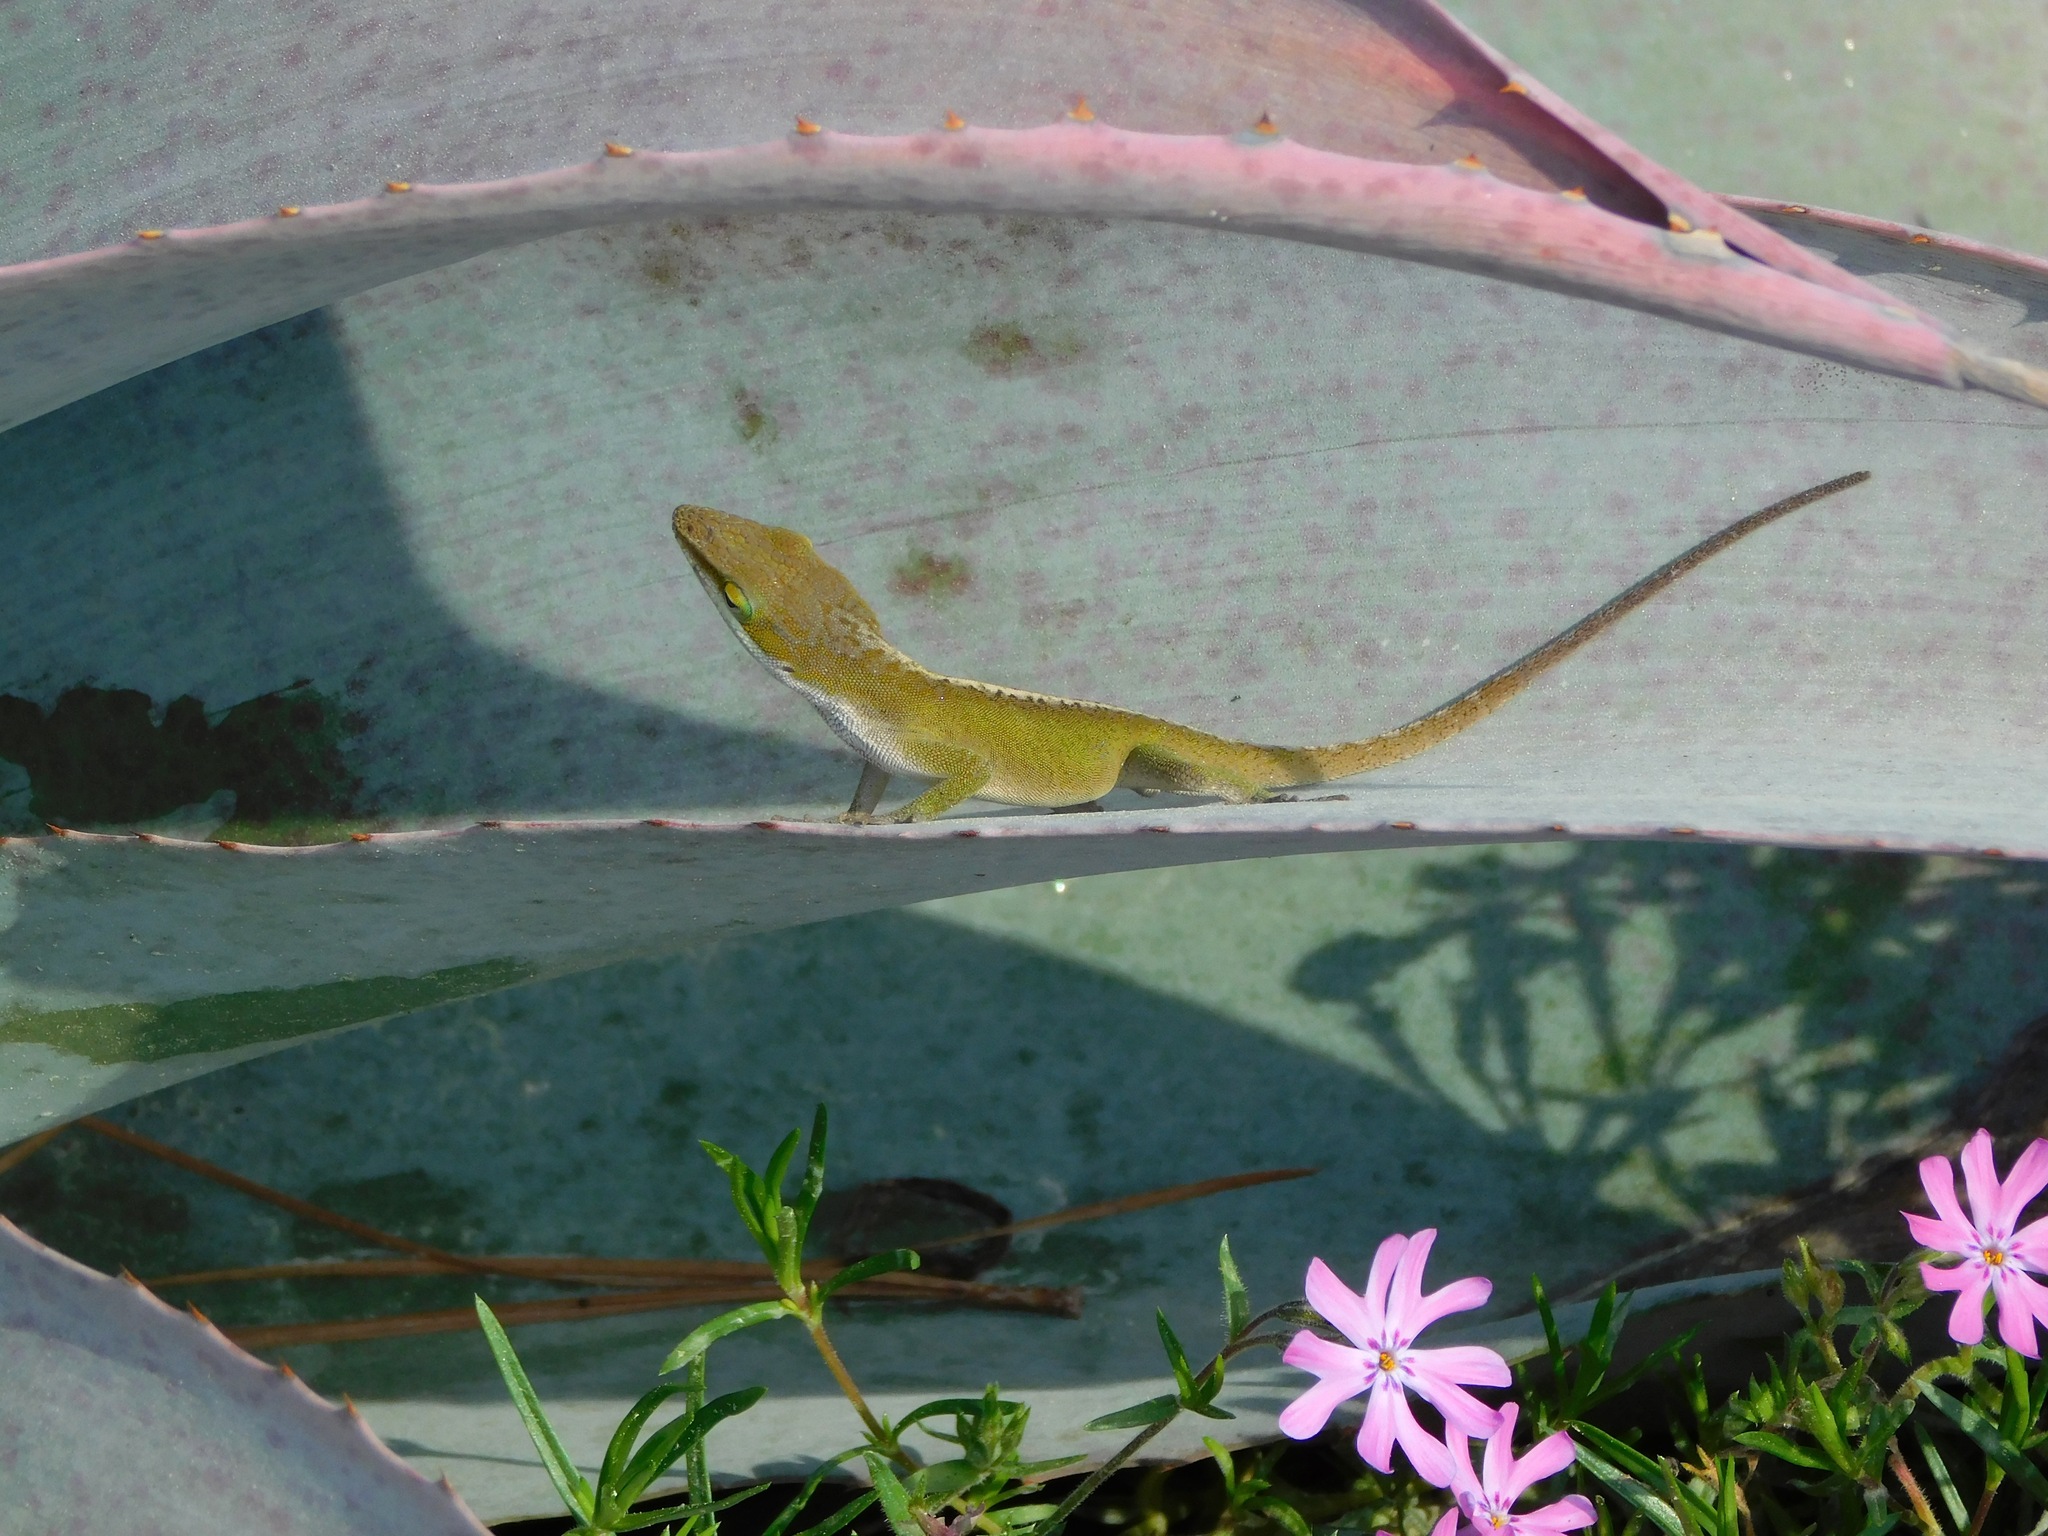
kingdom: Animalia
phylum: Chordata
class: Squamata
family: Dactyloidae
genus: Anolis
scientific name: Anolis carolinensis
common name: Green anole
